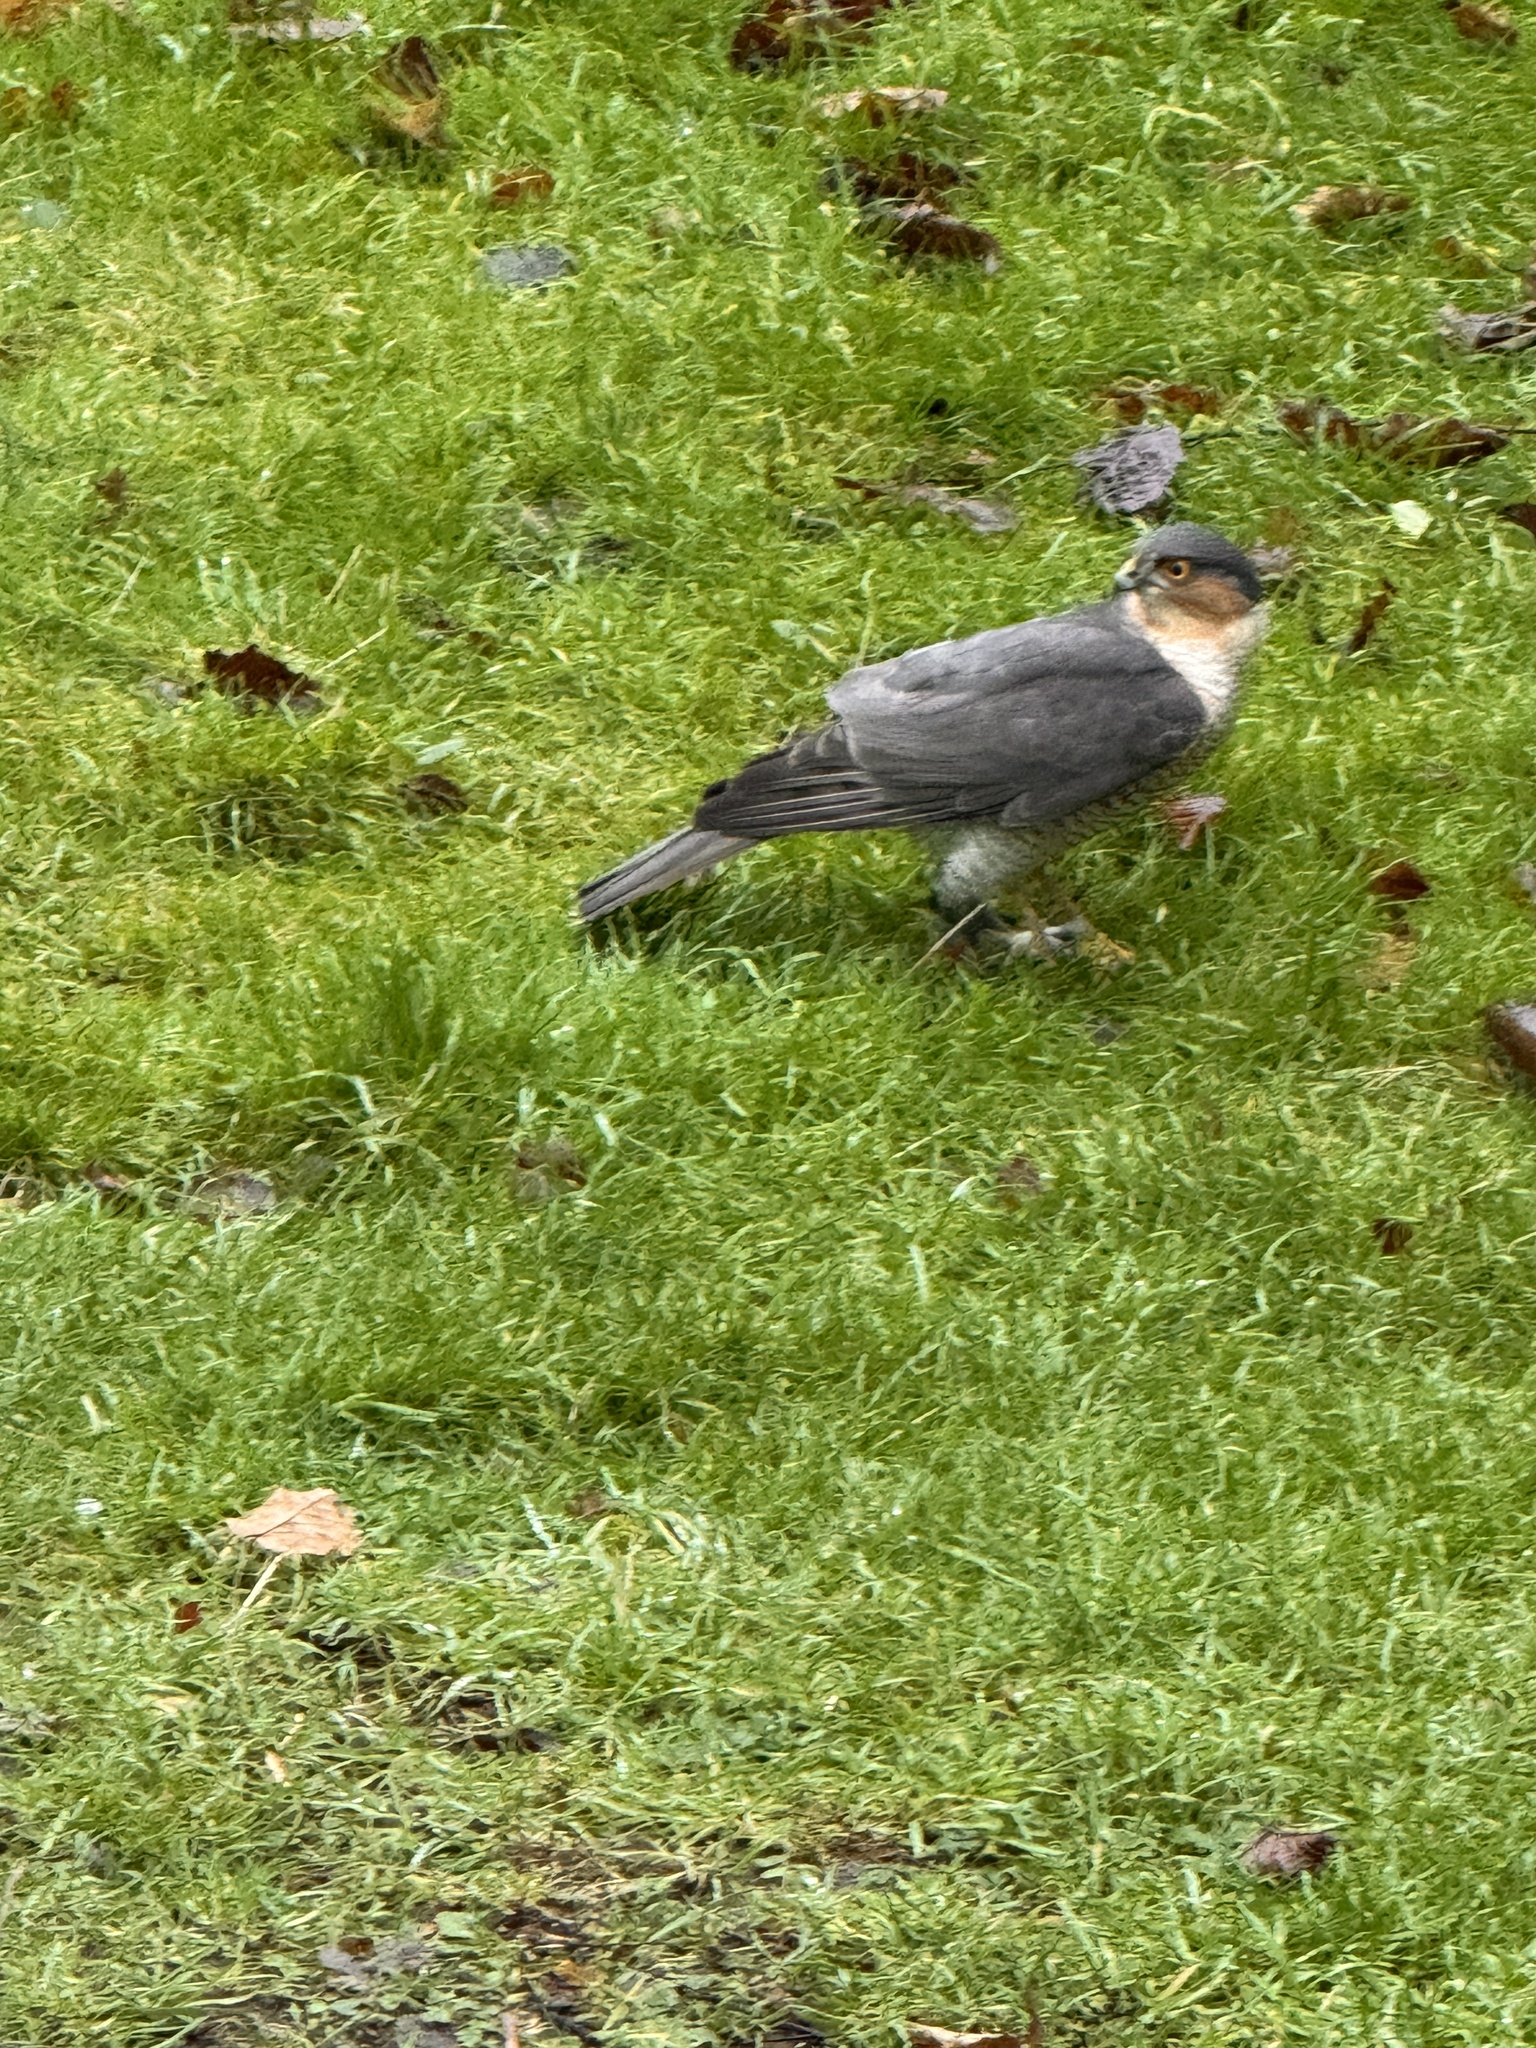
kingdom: Animalia
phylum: Chordata
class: Aves
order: Accipitriformes
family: Accipitridae
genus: Accipiter
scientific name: Accipiter nisus
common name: Eurasian sparrowhawk
